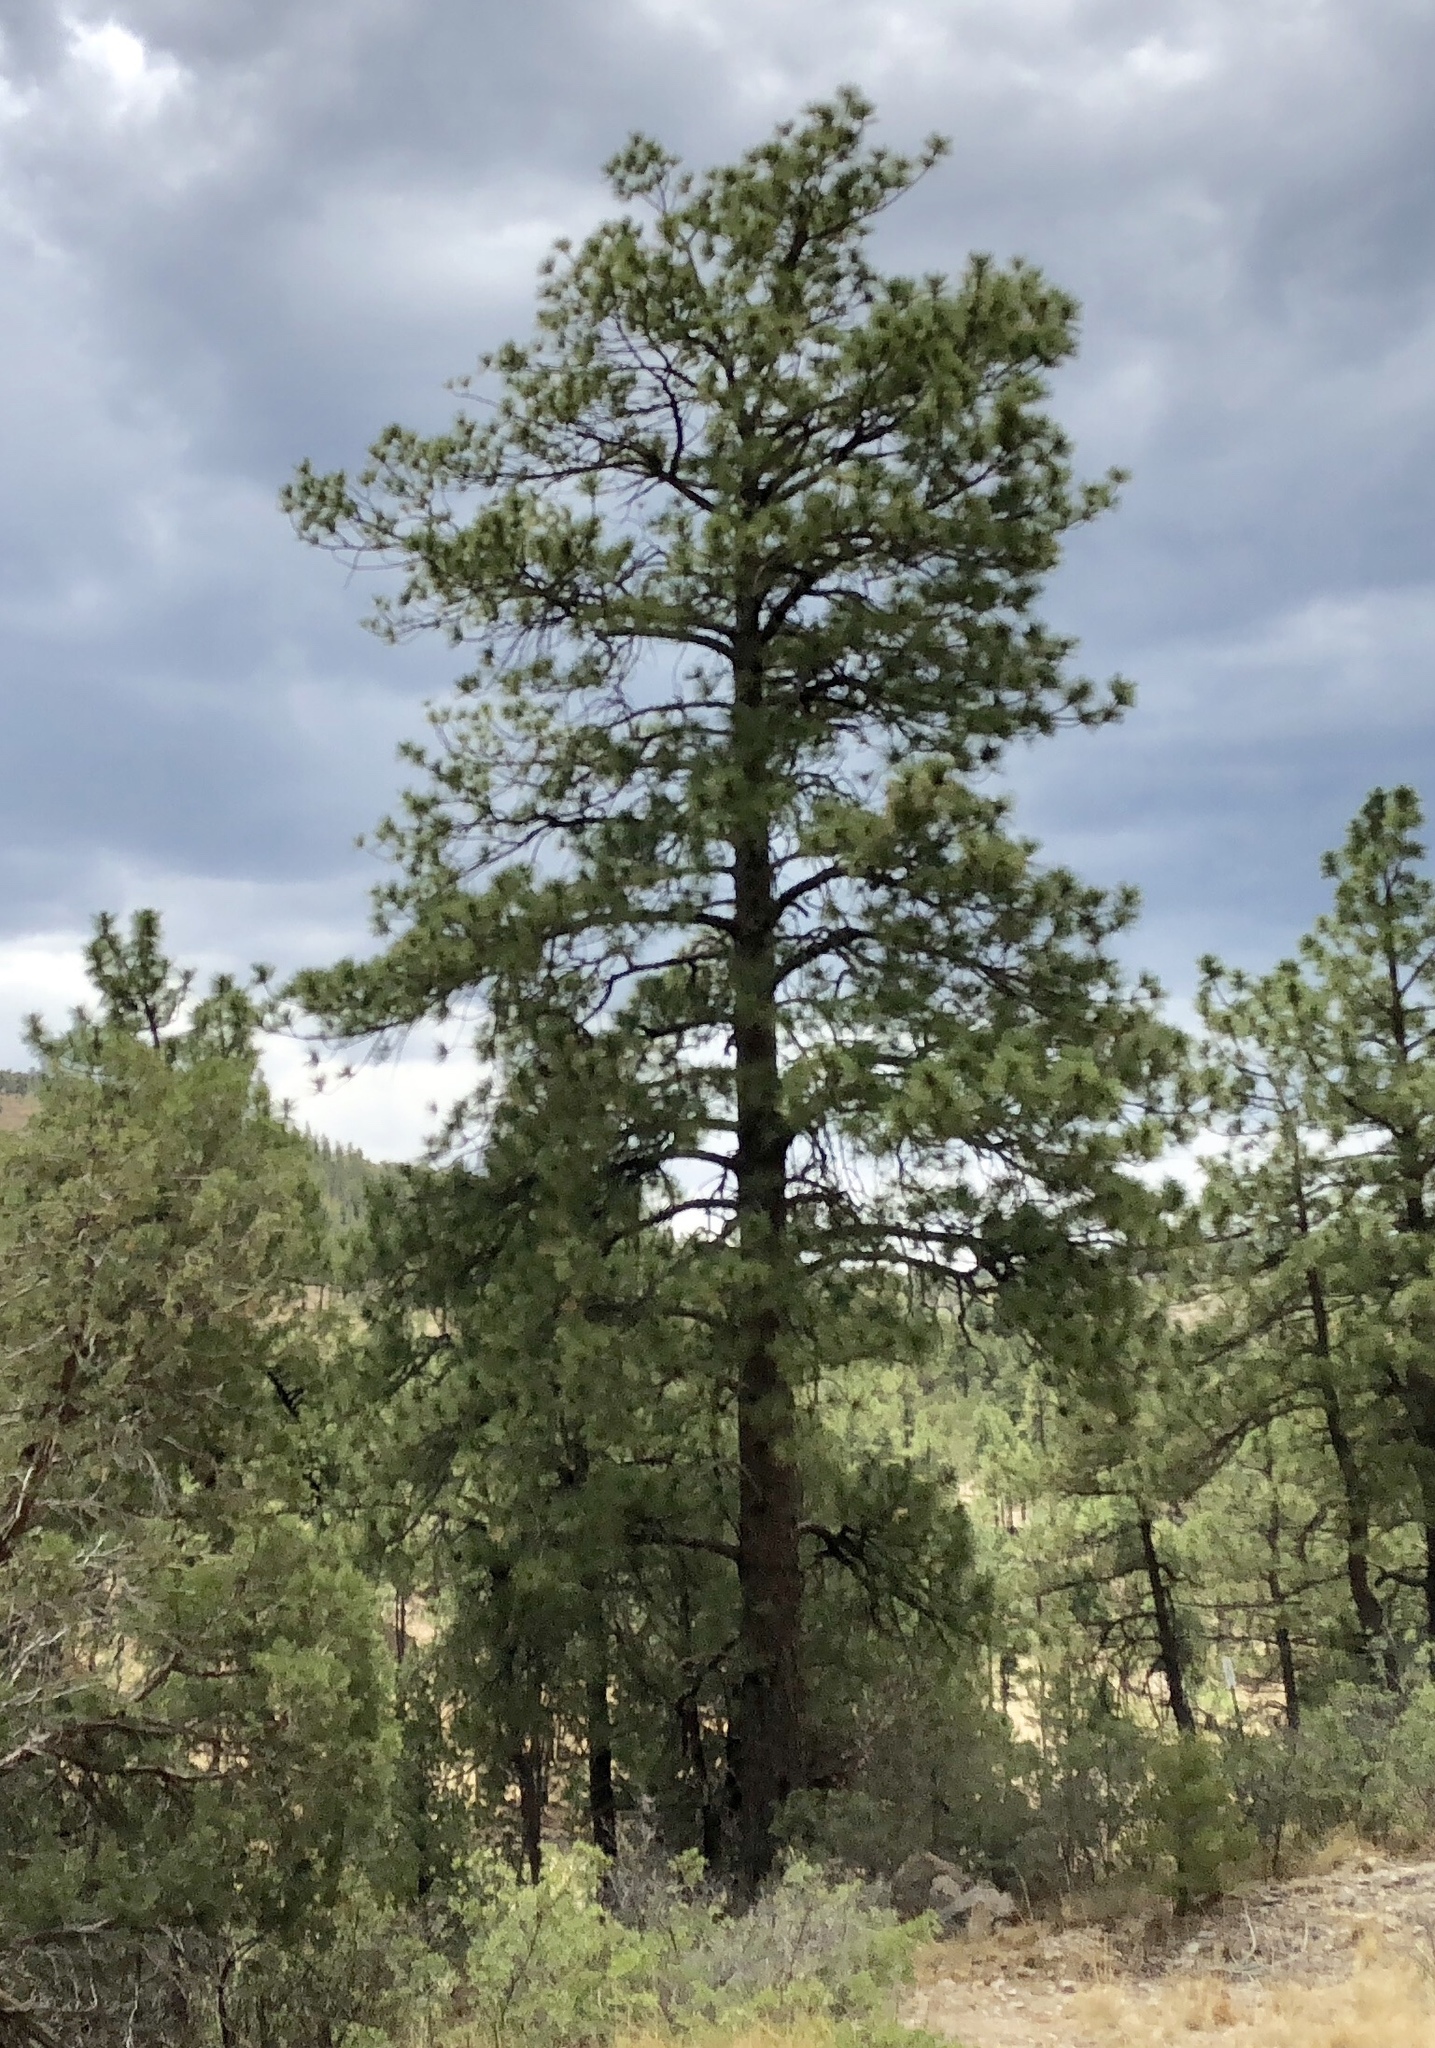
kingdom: Plantae
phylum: Tracheophyta
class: Pinopsida
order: Pinales
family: Pinaceae
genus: Pinus
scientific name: Pinus ponderosa
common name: Western yellow-pine
